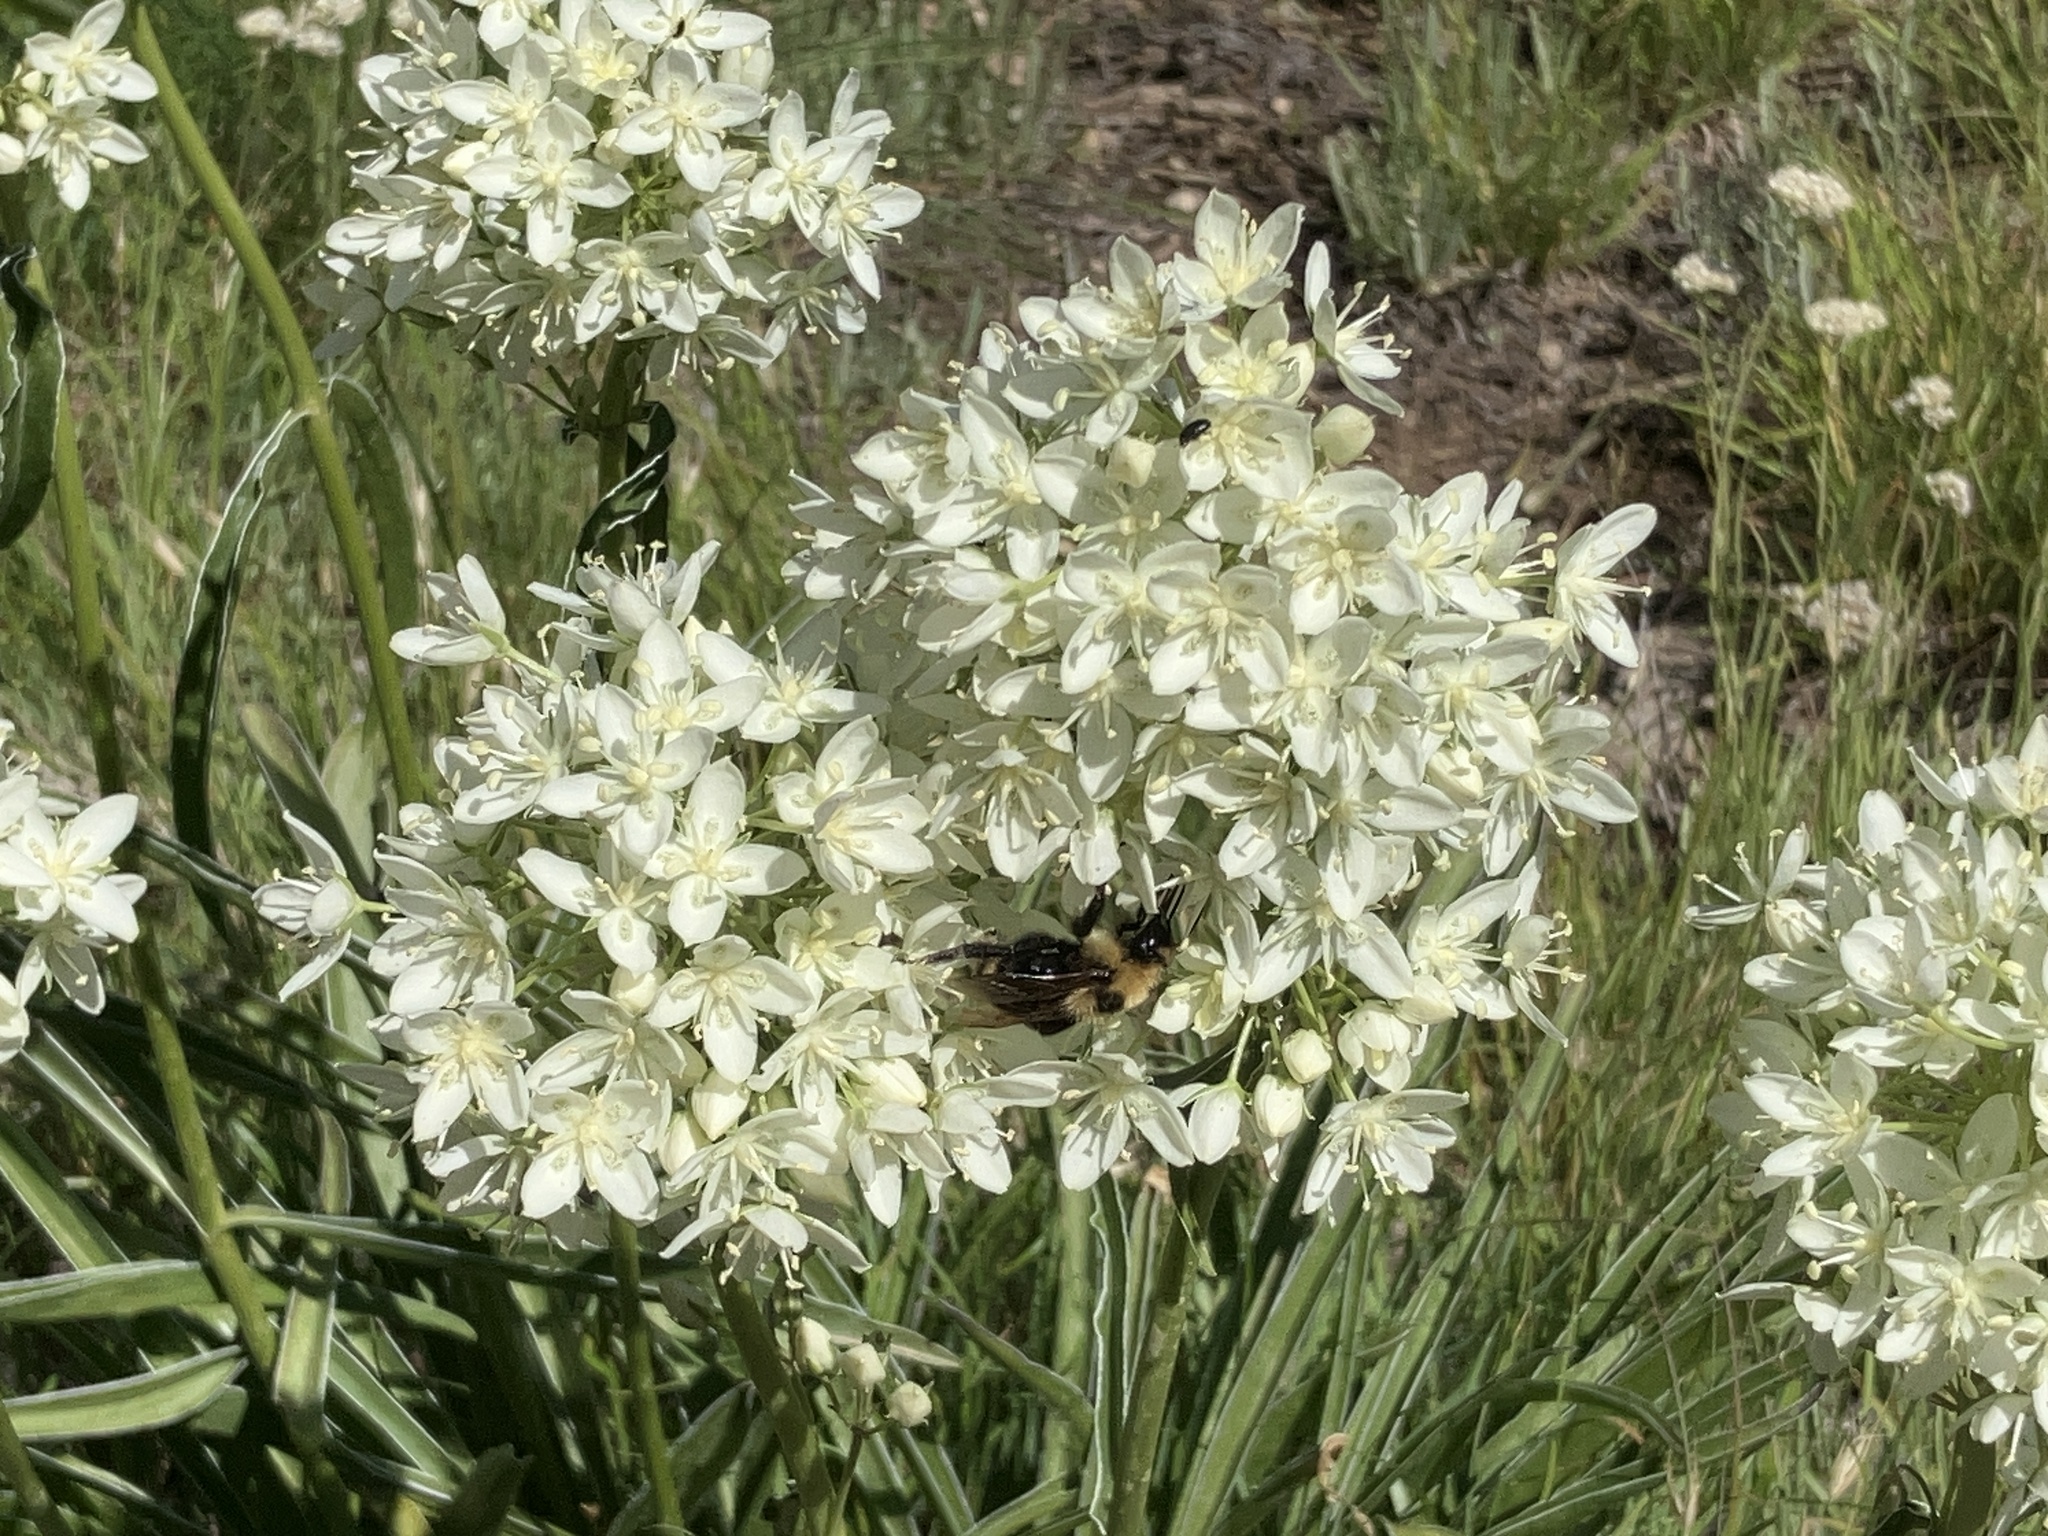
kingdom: Plantae
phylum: Tracheophyta
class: Magnoliopsida
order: Gentianales
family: Gentianaceae
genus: Frasera
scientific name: Frasera montana
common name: White frasera
